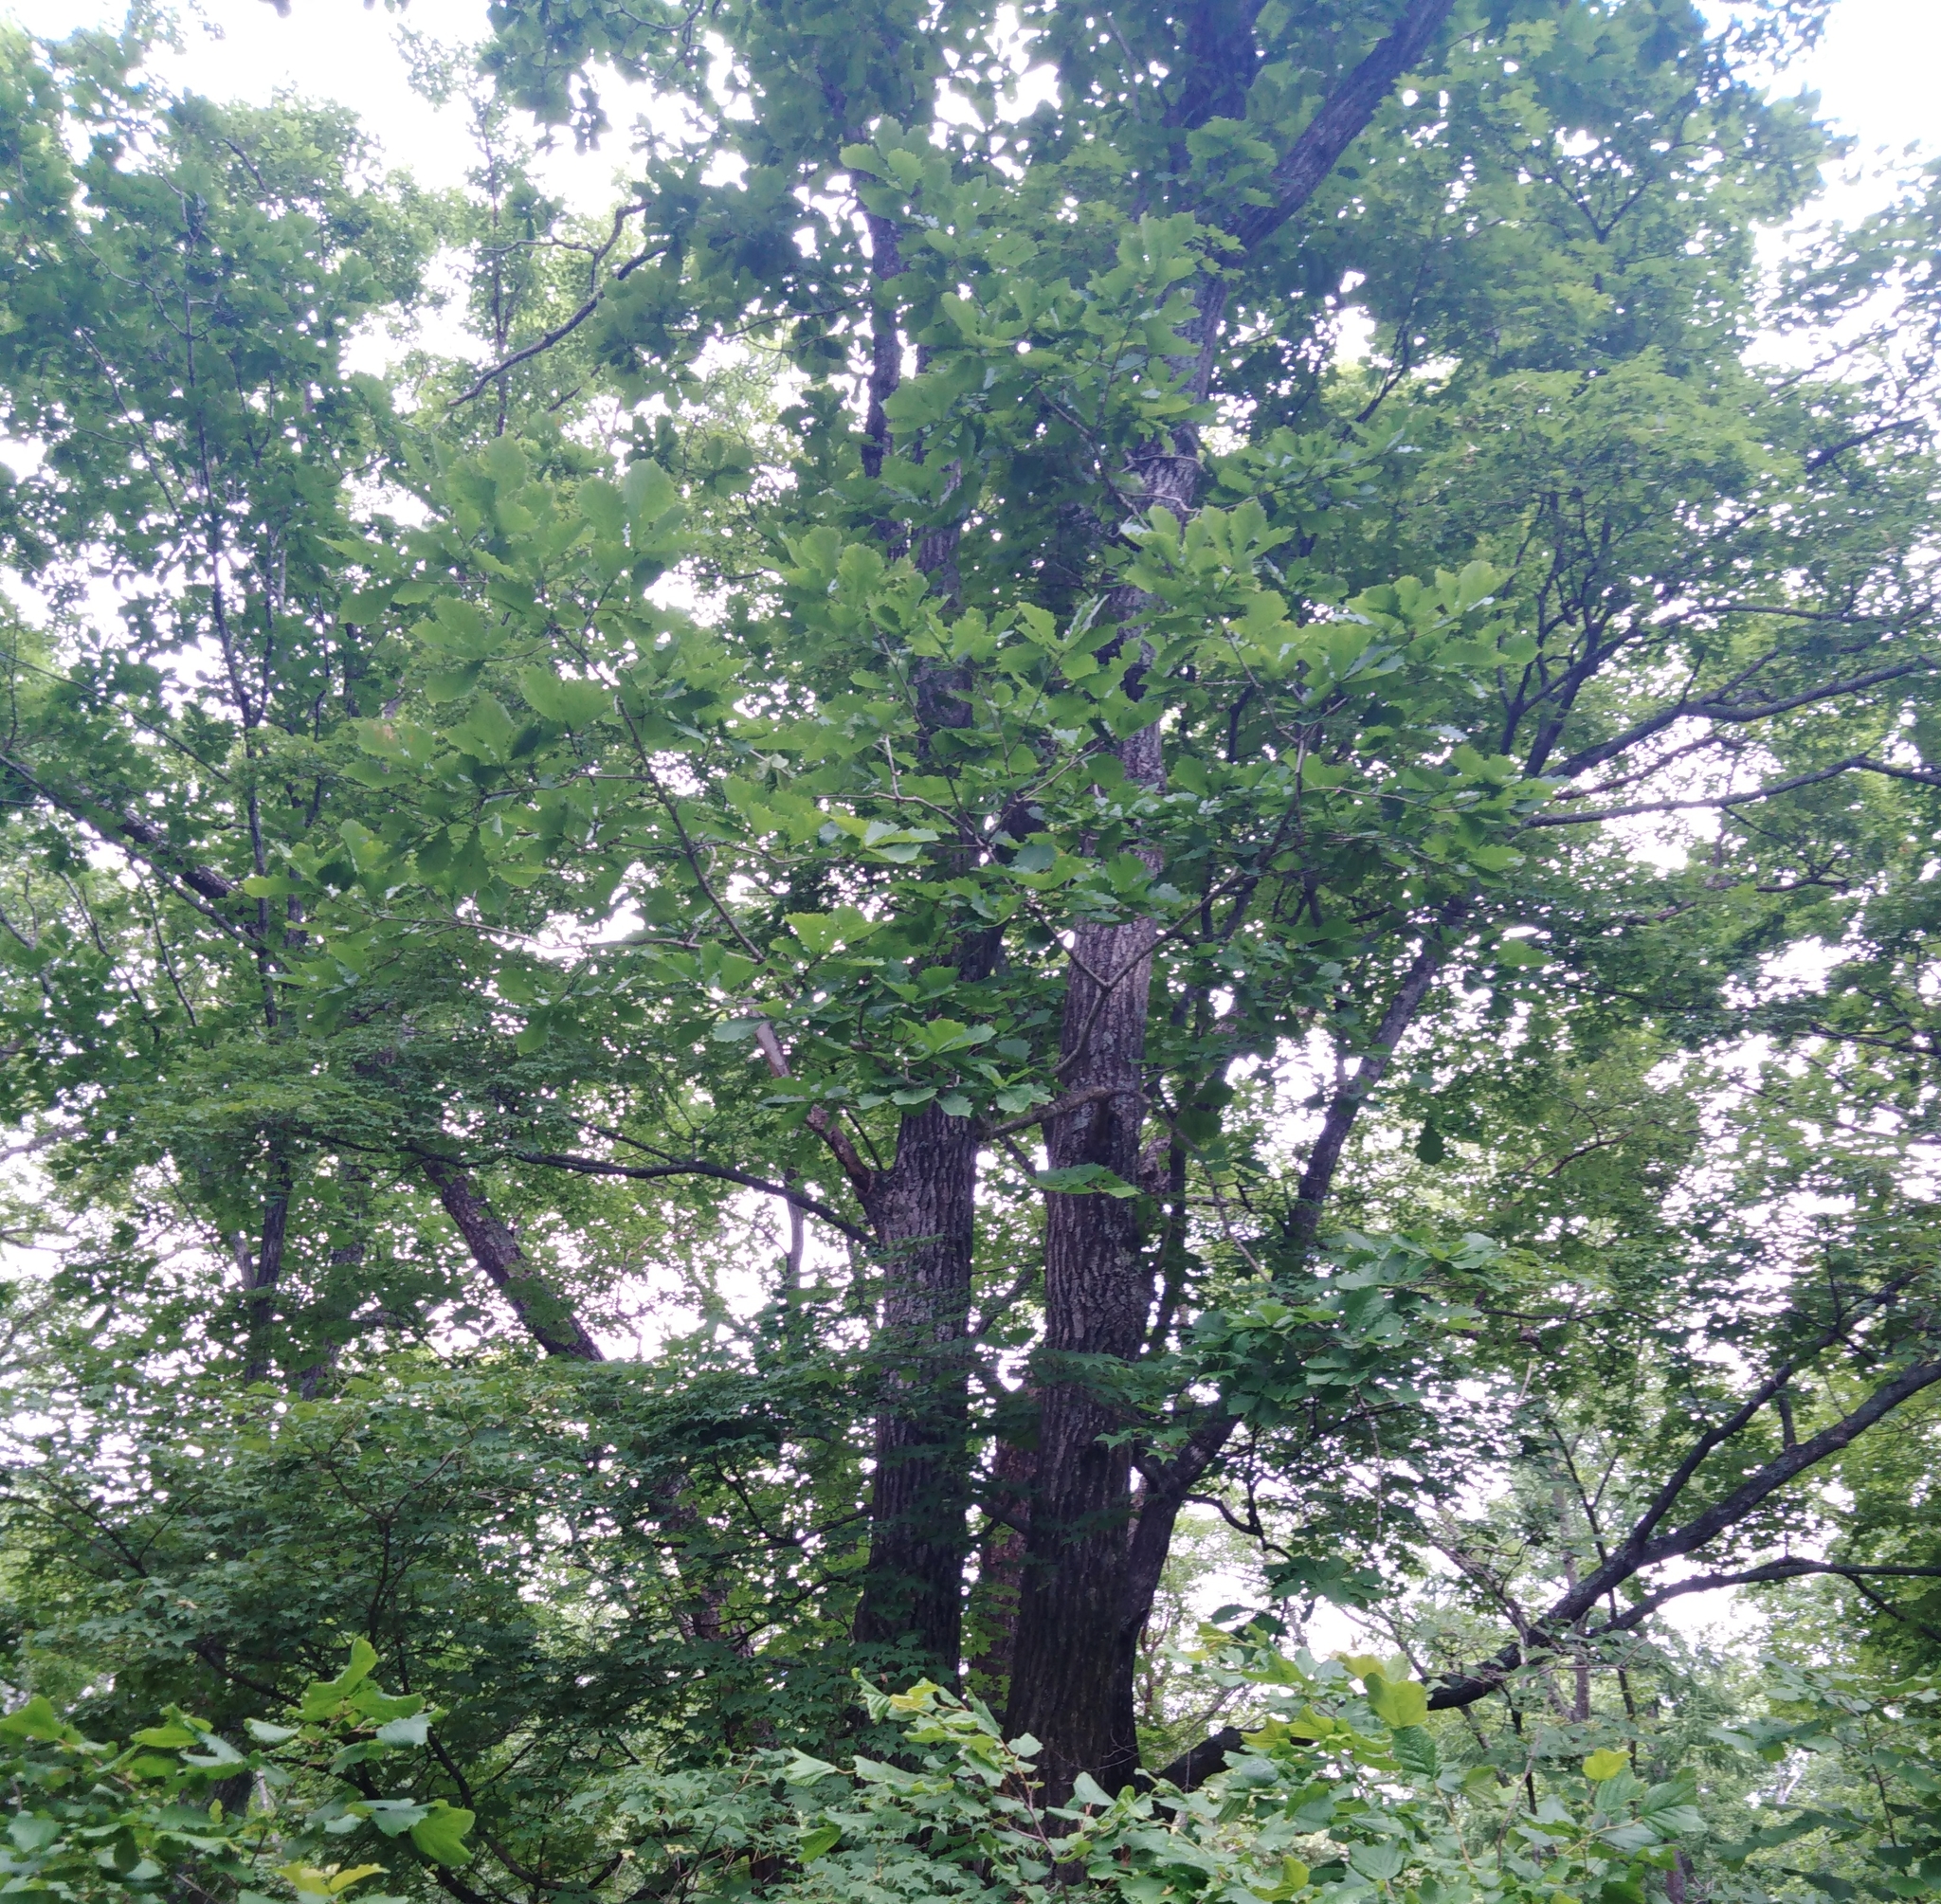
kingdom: Plantae
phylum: Tracheophyta
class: Magnoliopsida
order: Fagales
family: Fagaceae
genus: Quercus
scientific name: Quercus mongolica
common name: Mongolian oak
